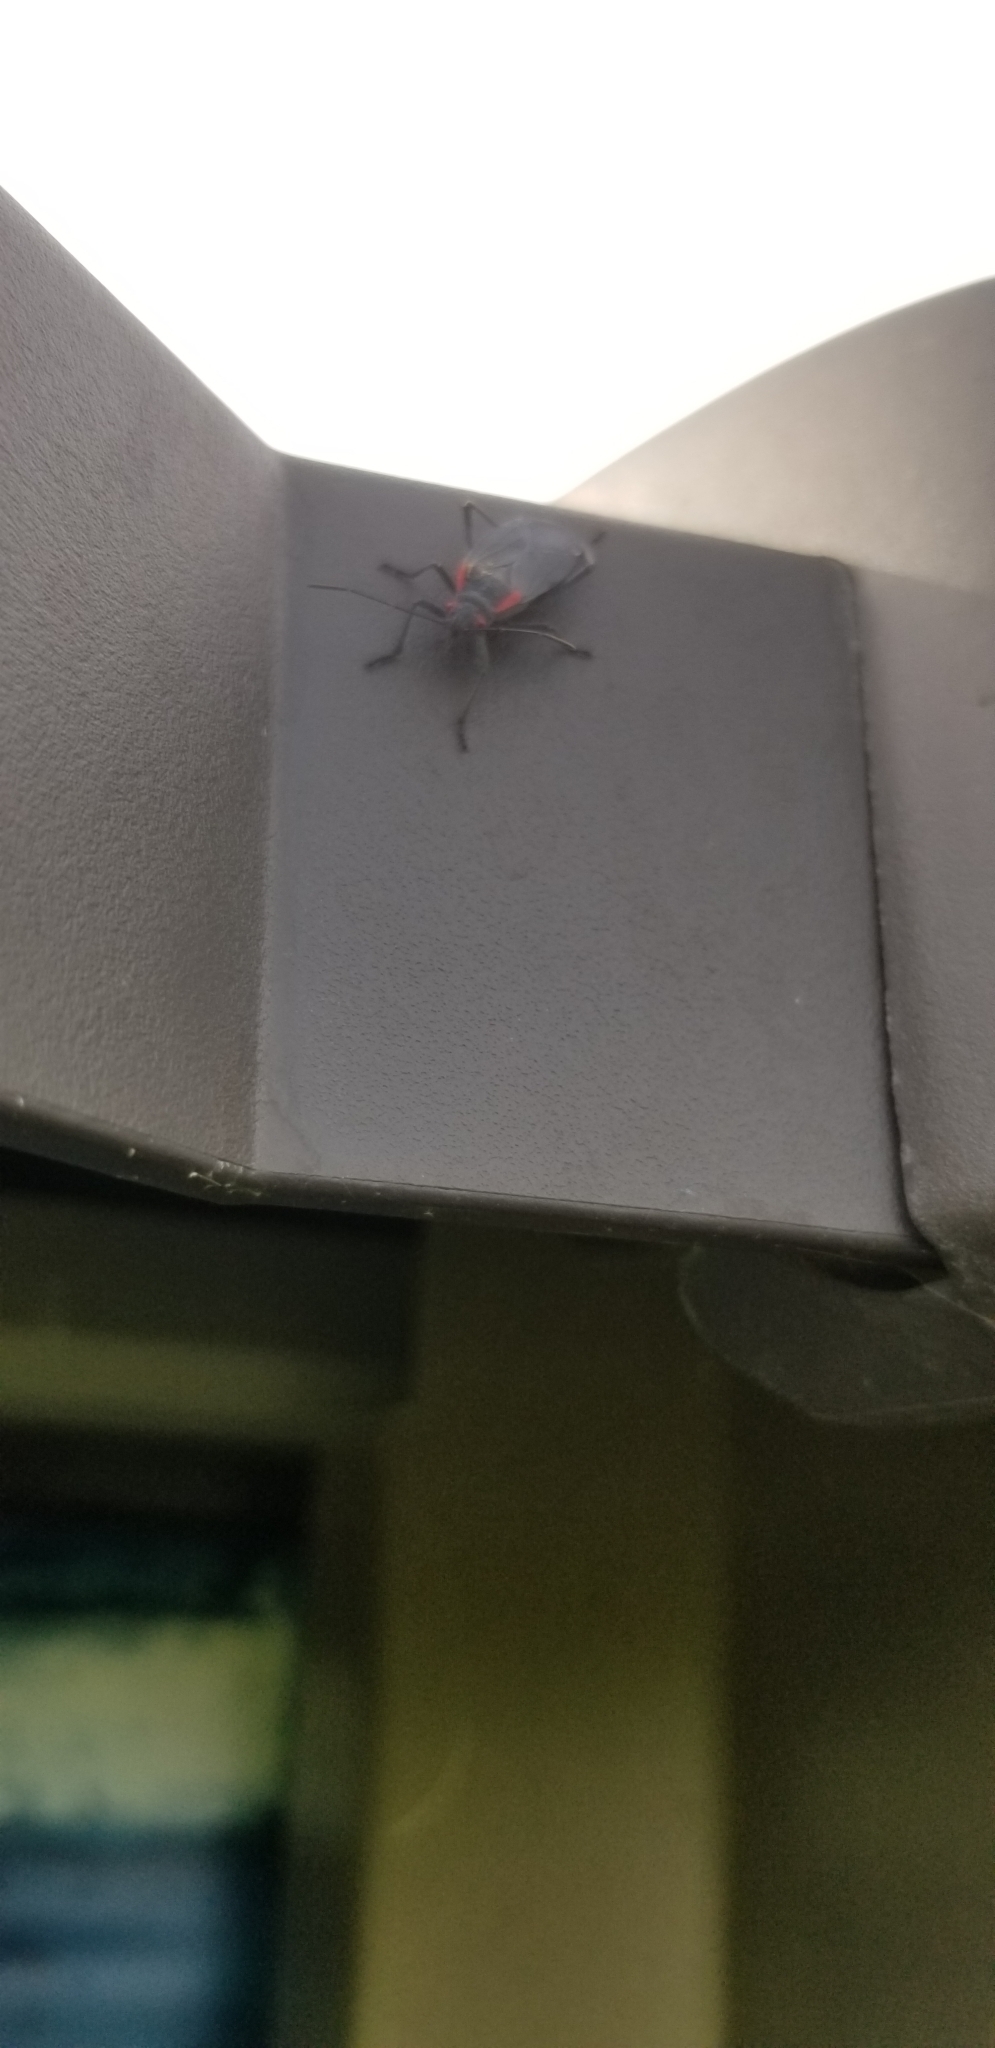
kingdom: Animalia
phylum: Arthropoda
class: Insecta
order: Hemiptera
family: Rhopalidae
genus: Jadera
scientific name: Jadera haematoloma
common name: Red-shouldered bug
